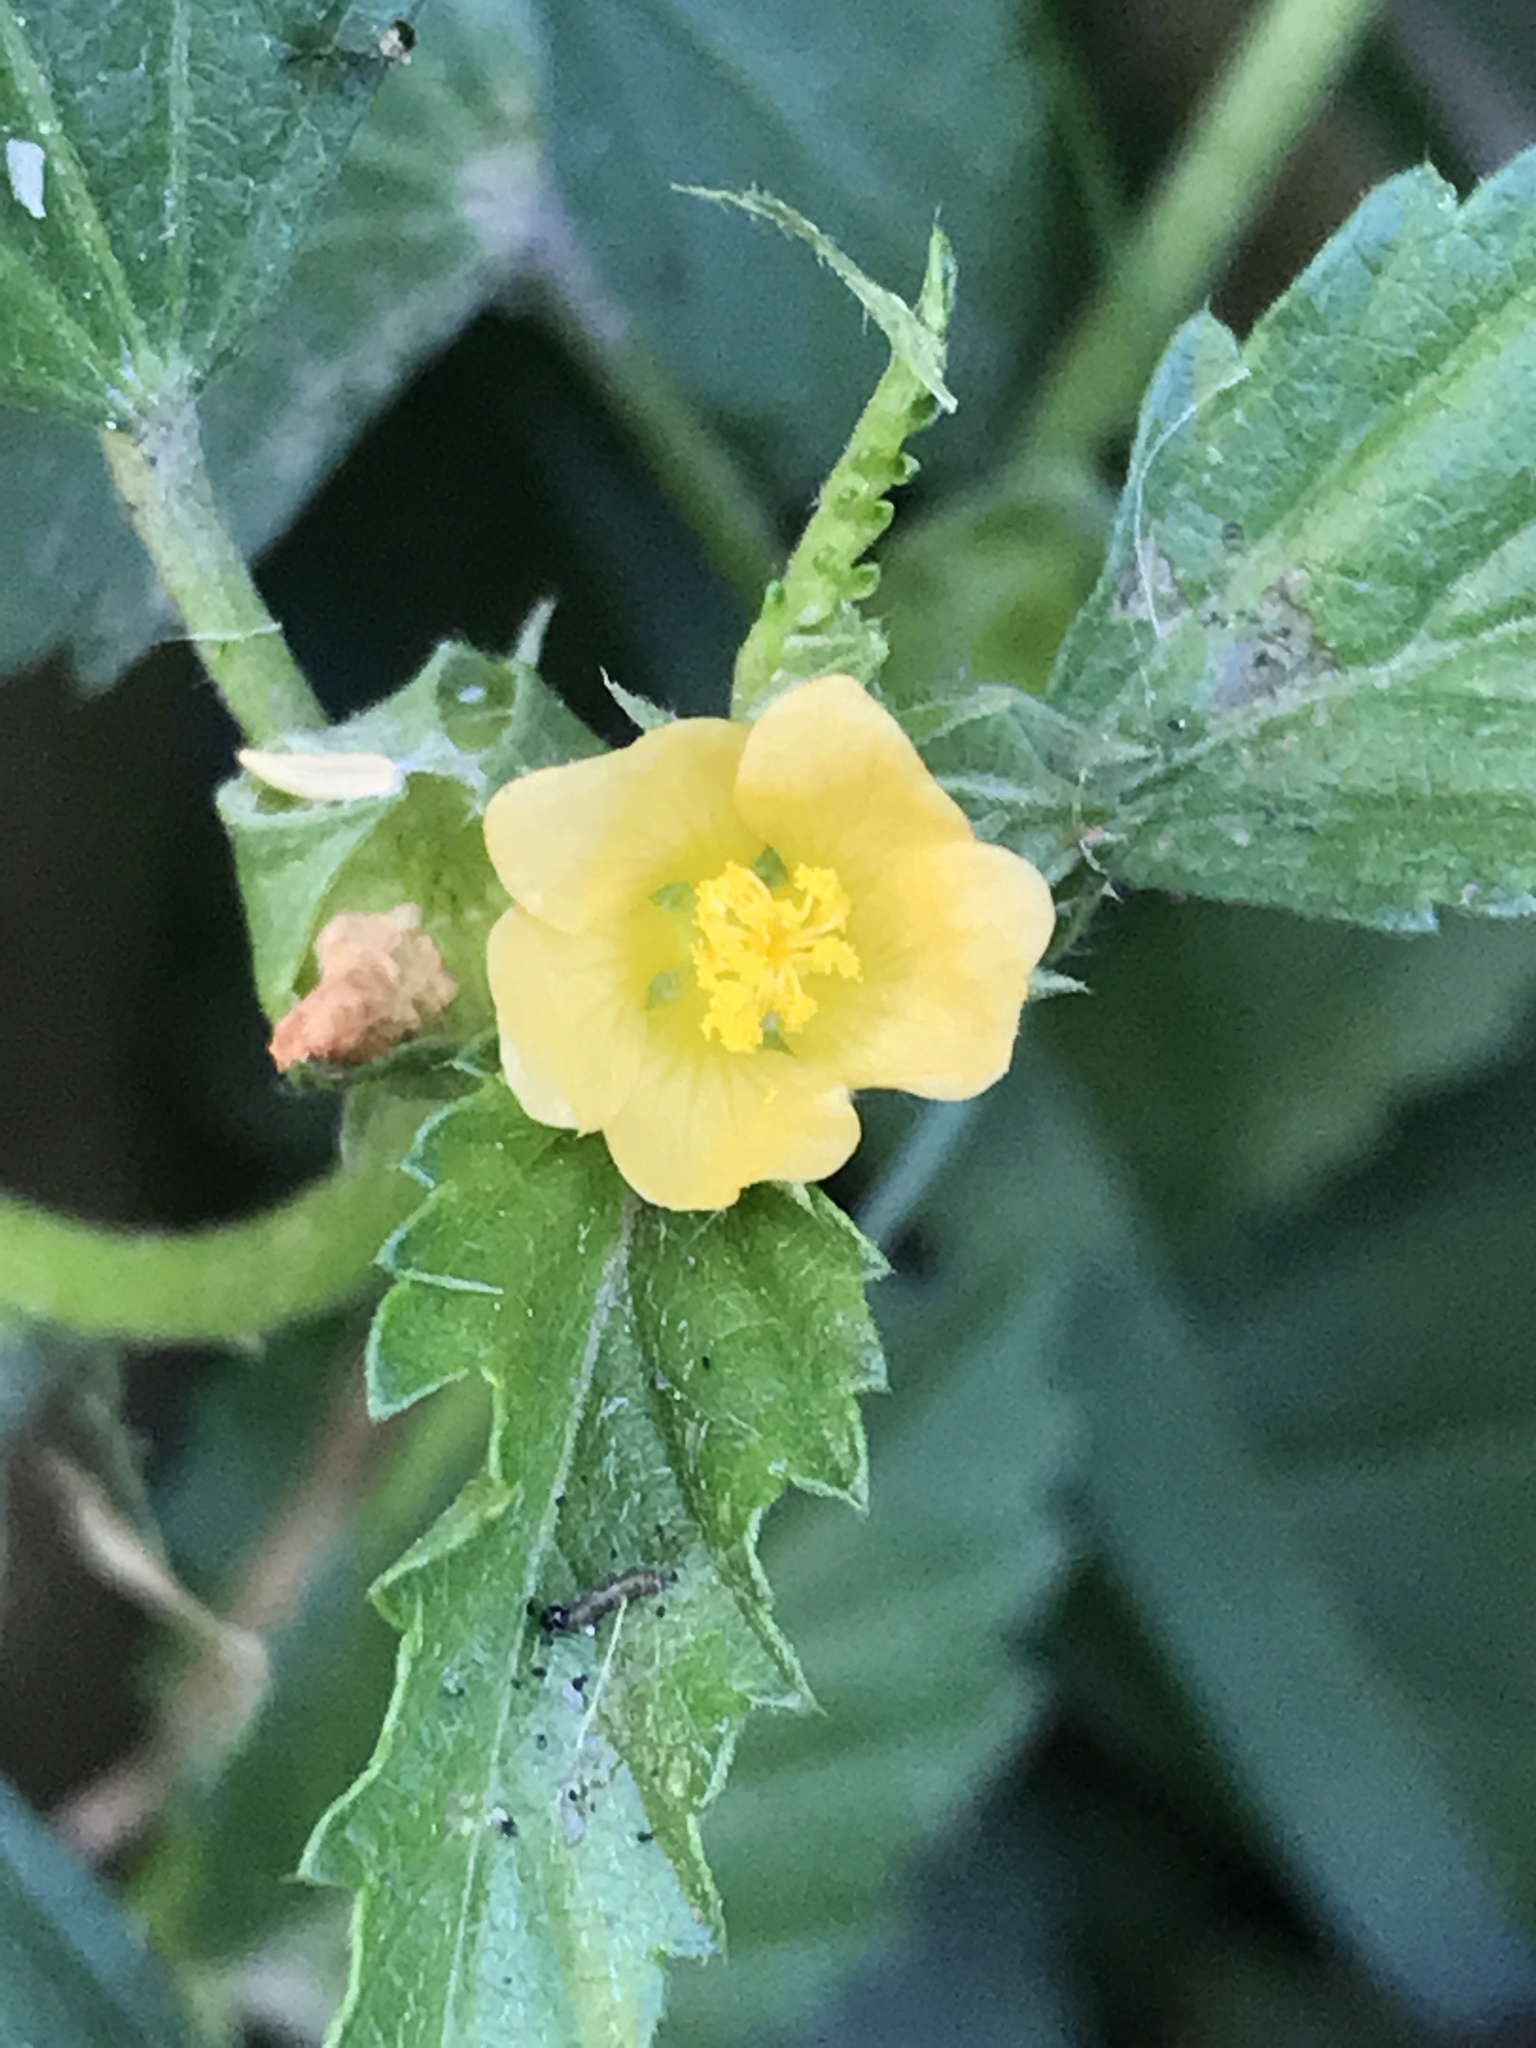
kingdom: Plantae
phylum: Tracheophyta
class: Magnoliopsida
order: Malvales
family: Malvaceae
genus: Malvastrum
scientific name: Malvastrum coromandelianum
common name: Threelobe false mallow
